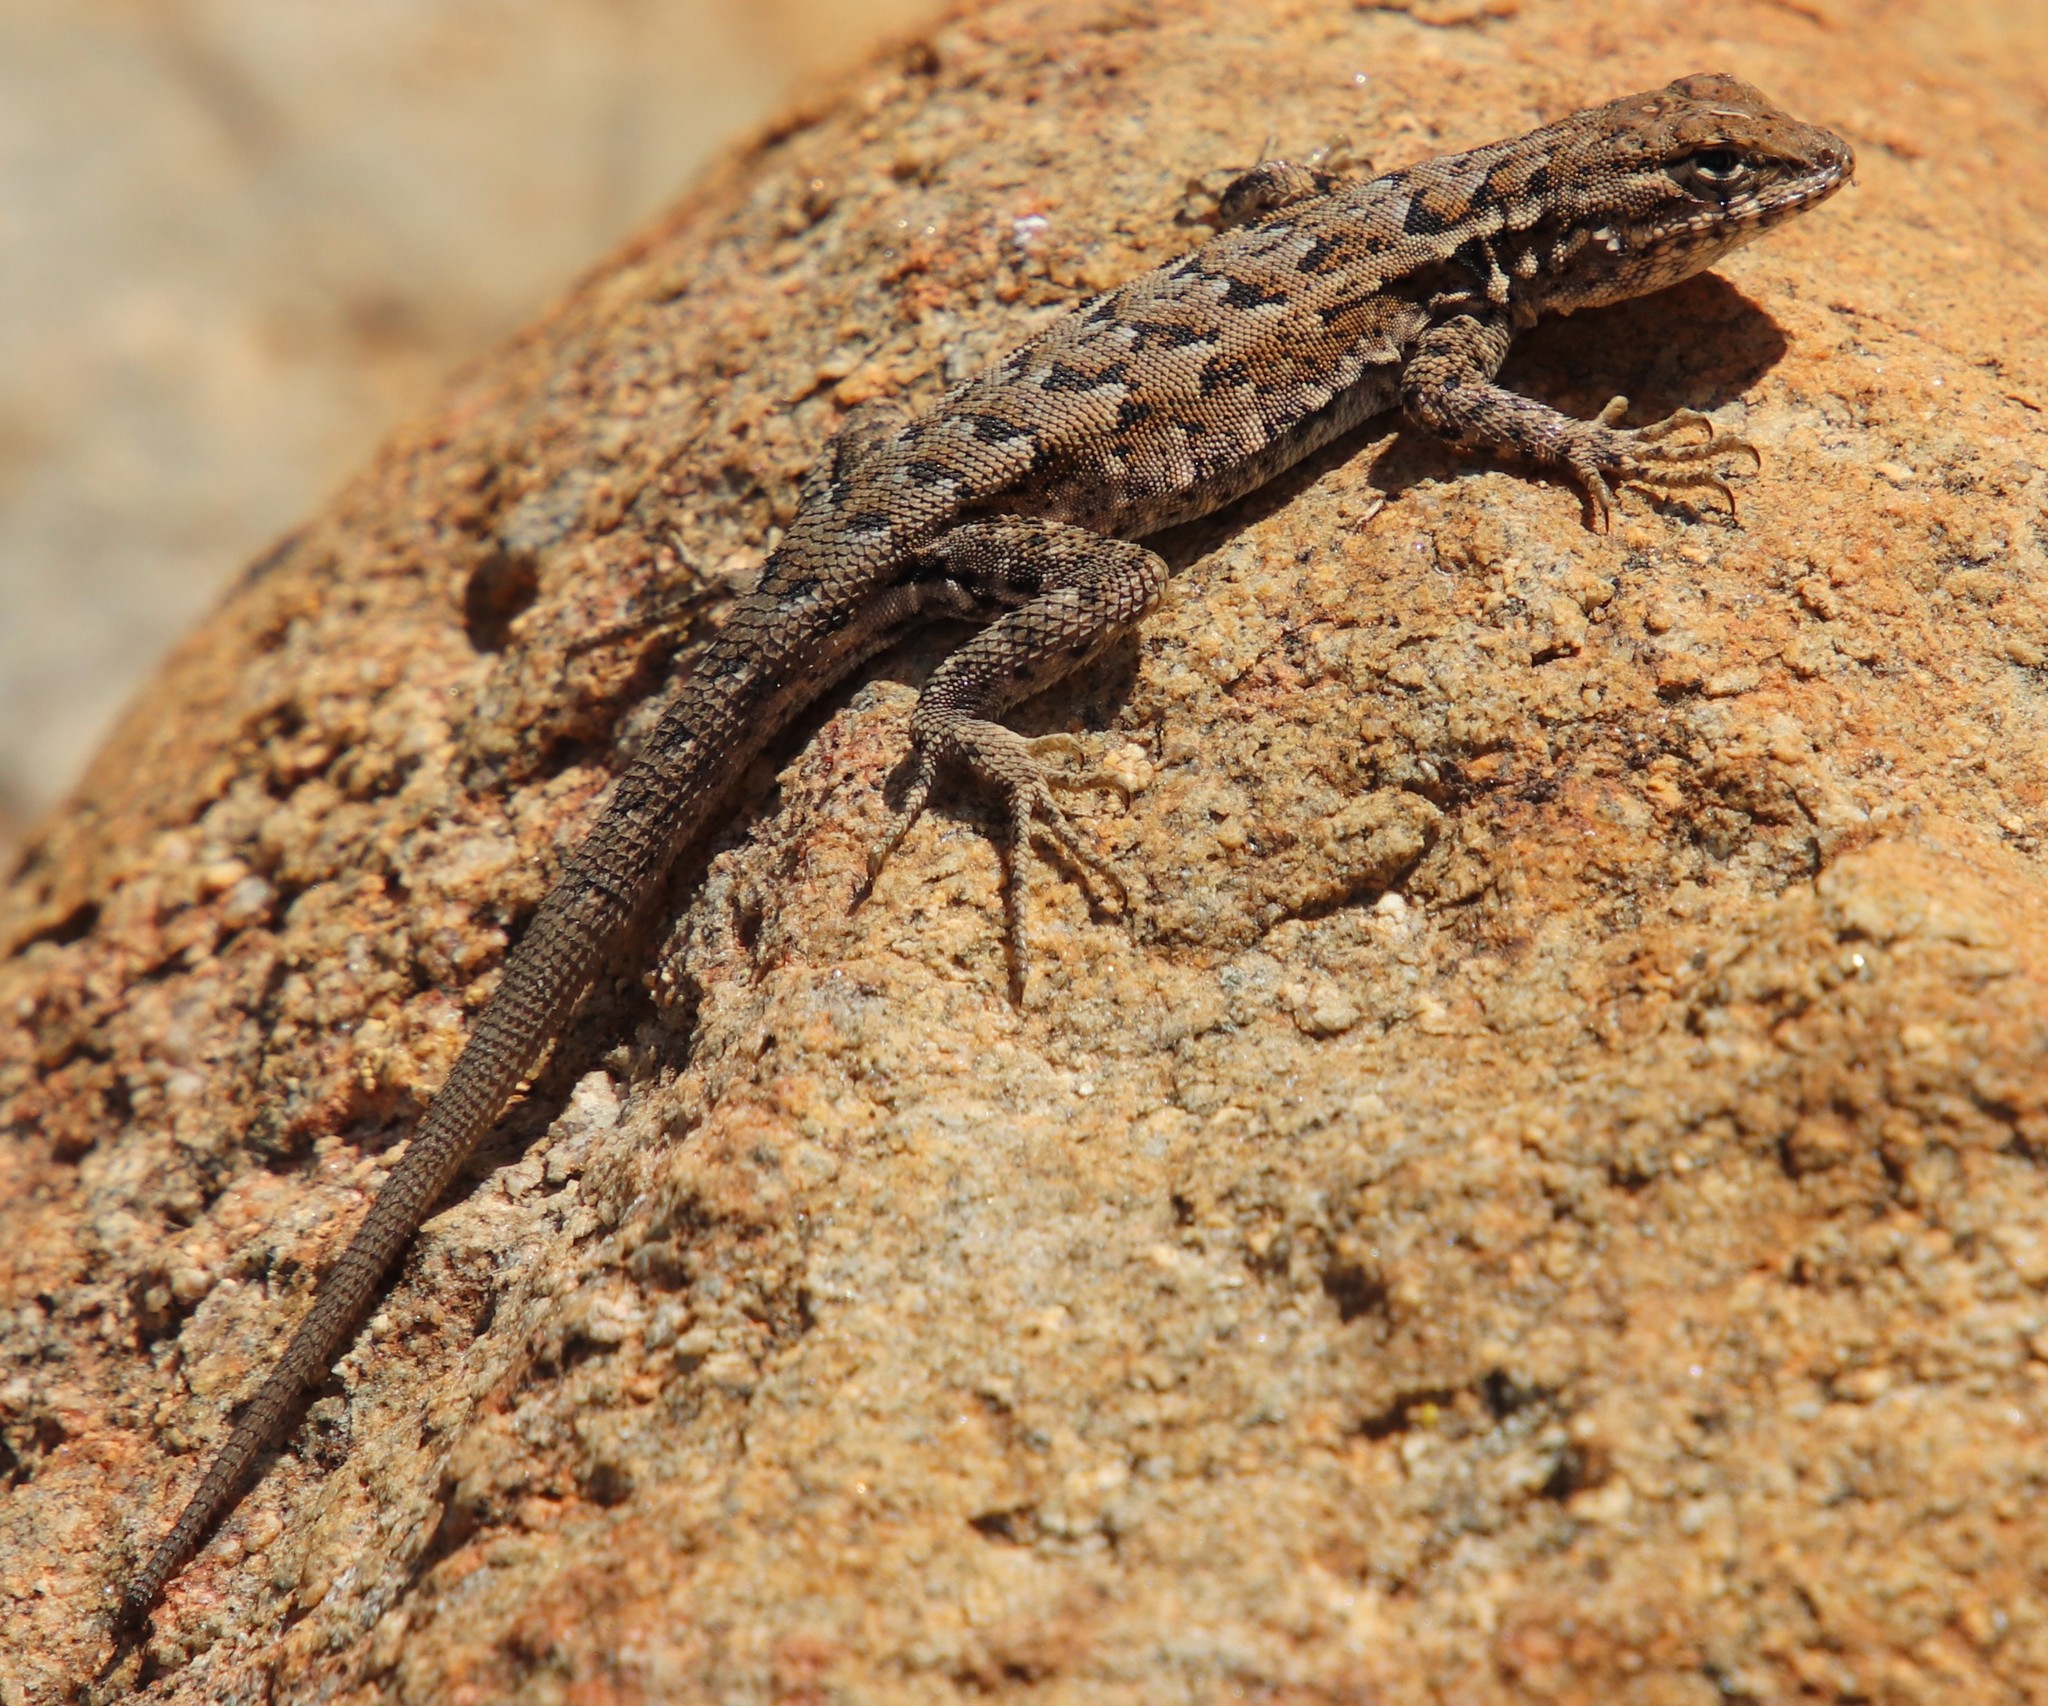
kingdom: Animalia
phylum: Chordata
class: Squamata
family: Phrynosomatidae
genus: Uta
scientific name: Uta stansburiana
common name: Side-blotched lizard
